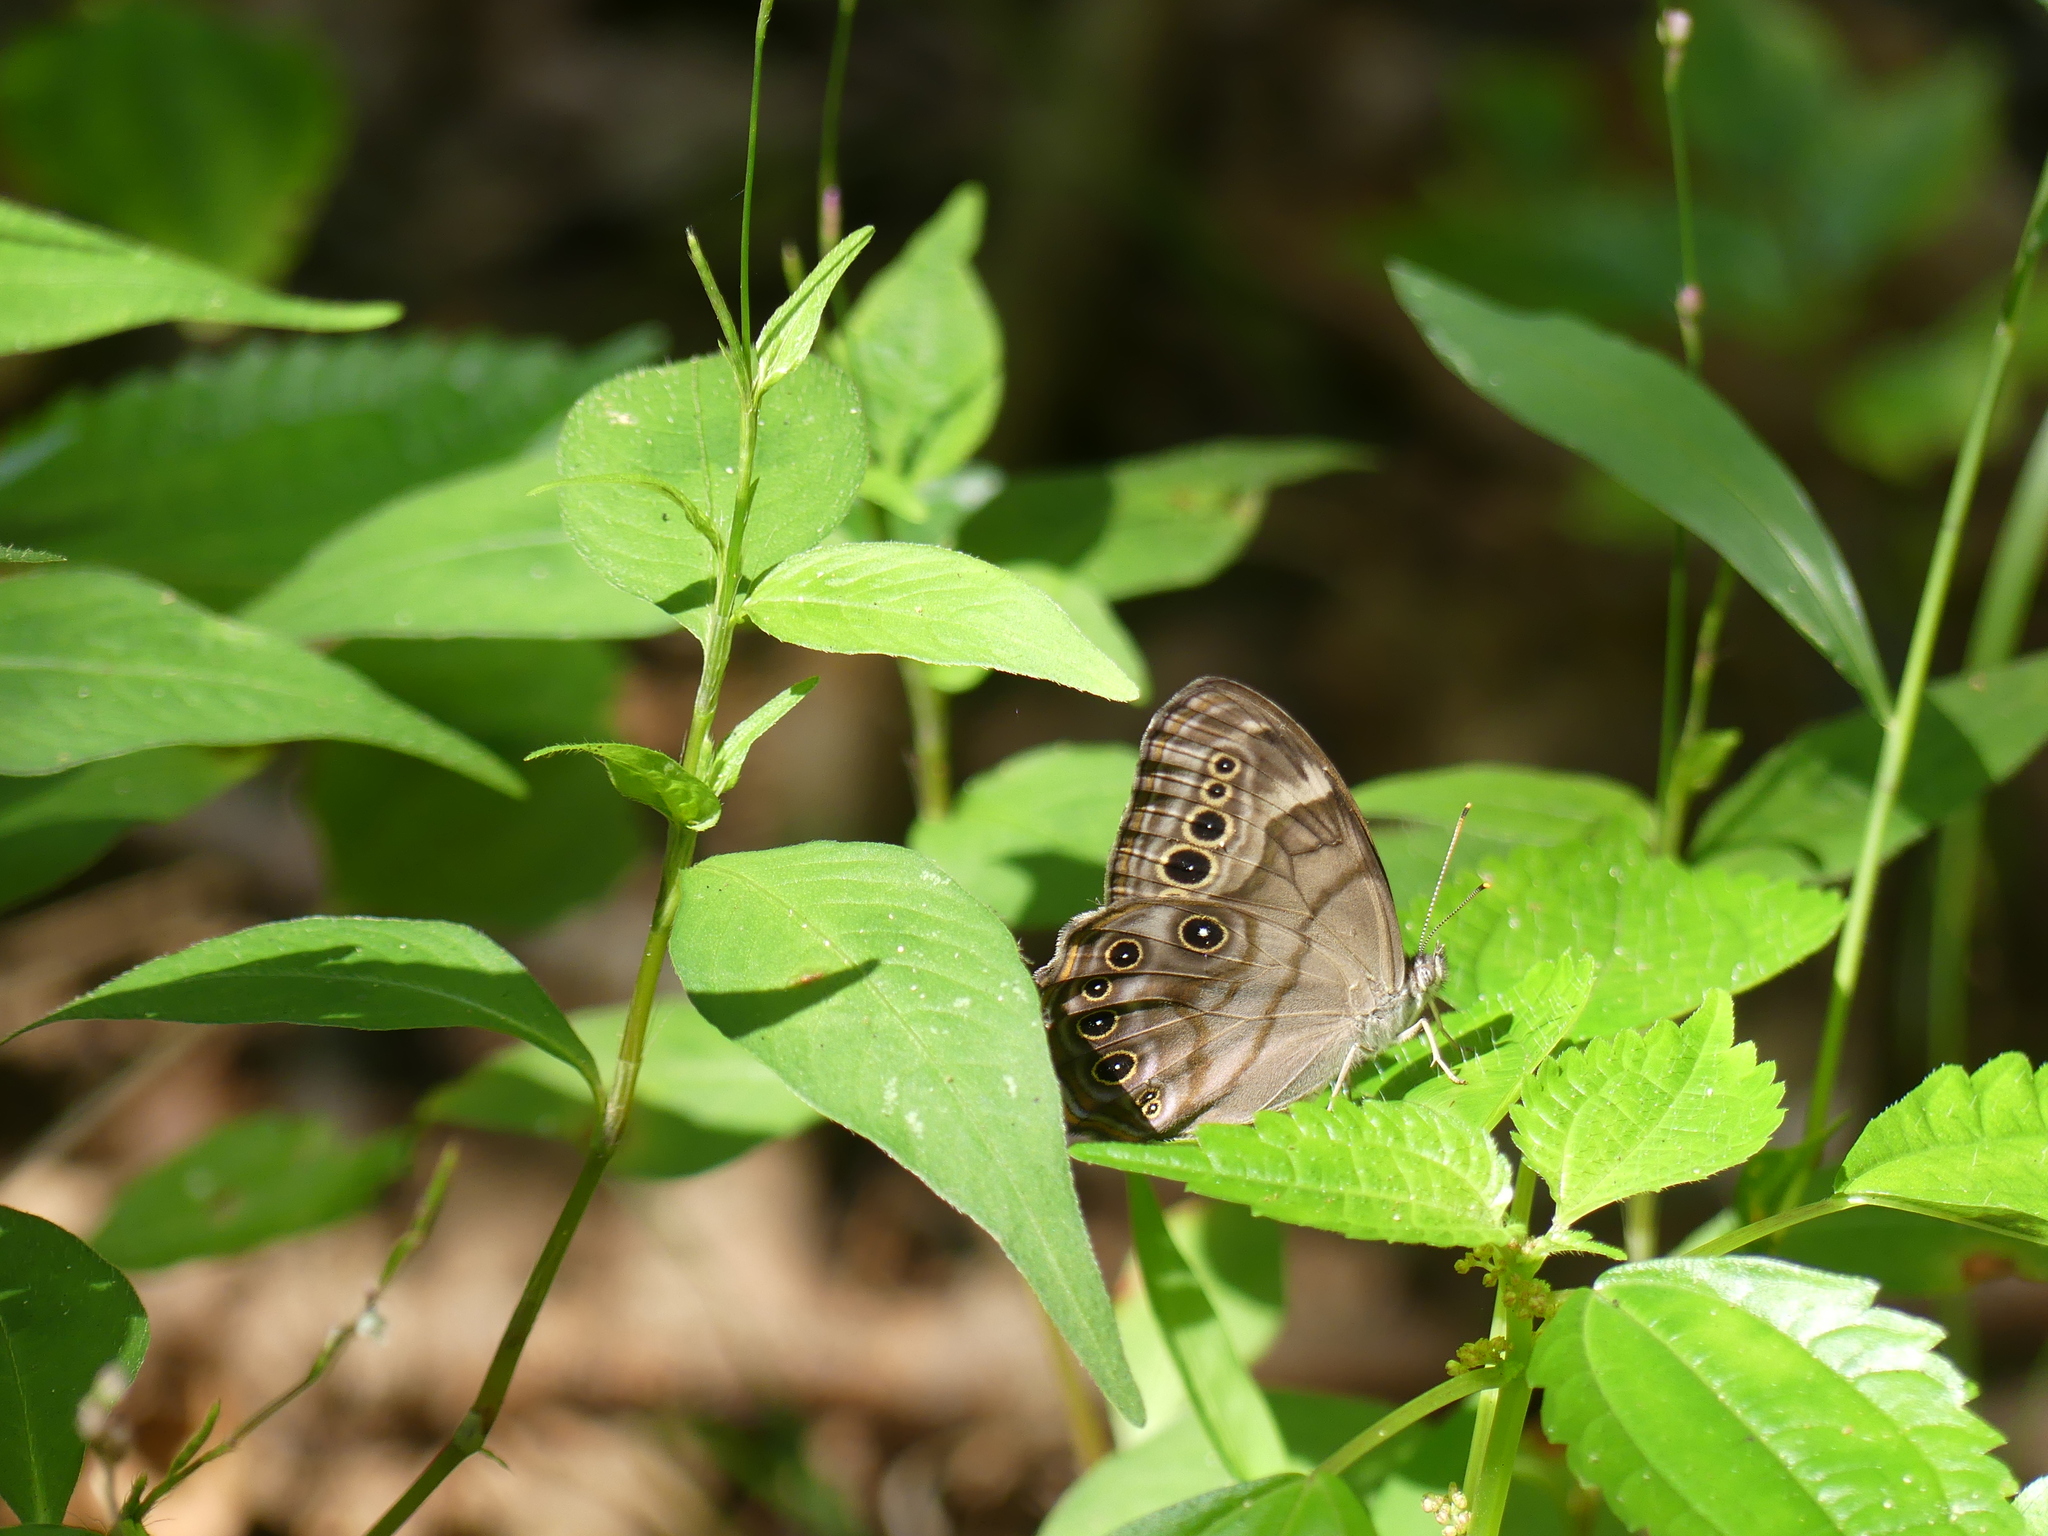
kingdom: Animalia
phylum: Arthropoda
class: Insecta
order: Lepidoptera
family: Nymphalidae
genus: Lethe
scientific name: Lethe anthedon
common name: Northern pearly-eye
